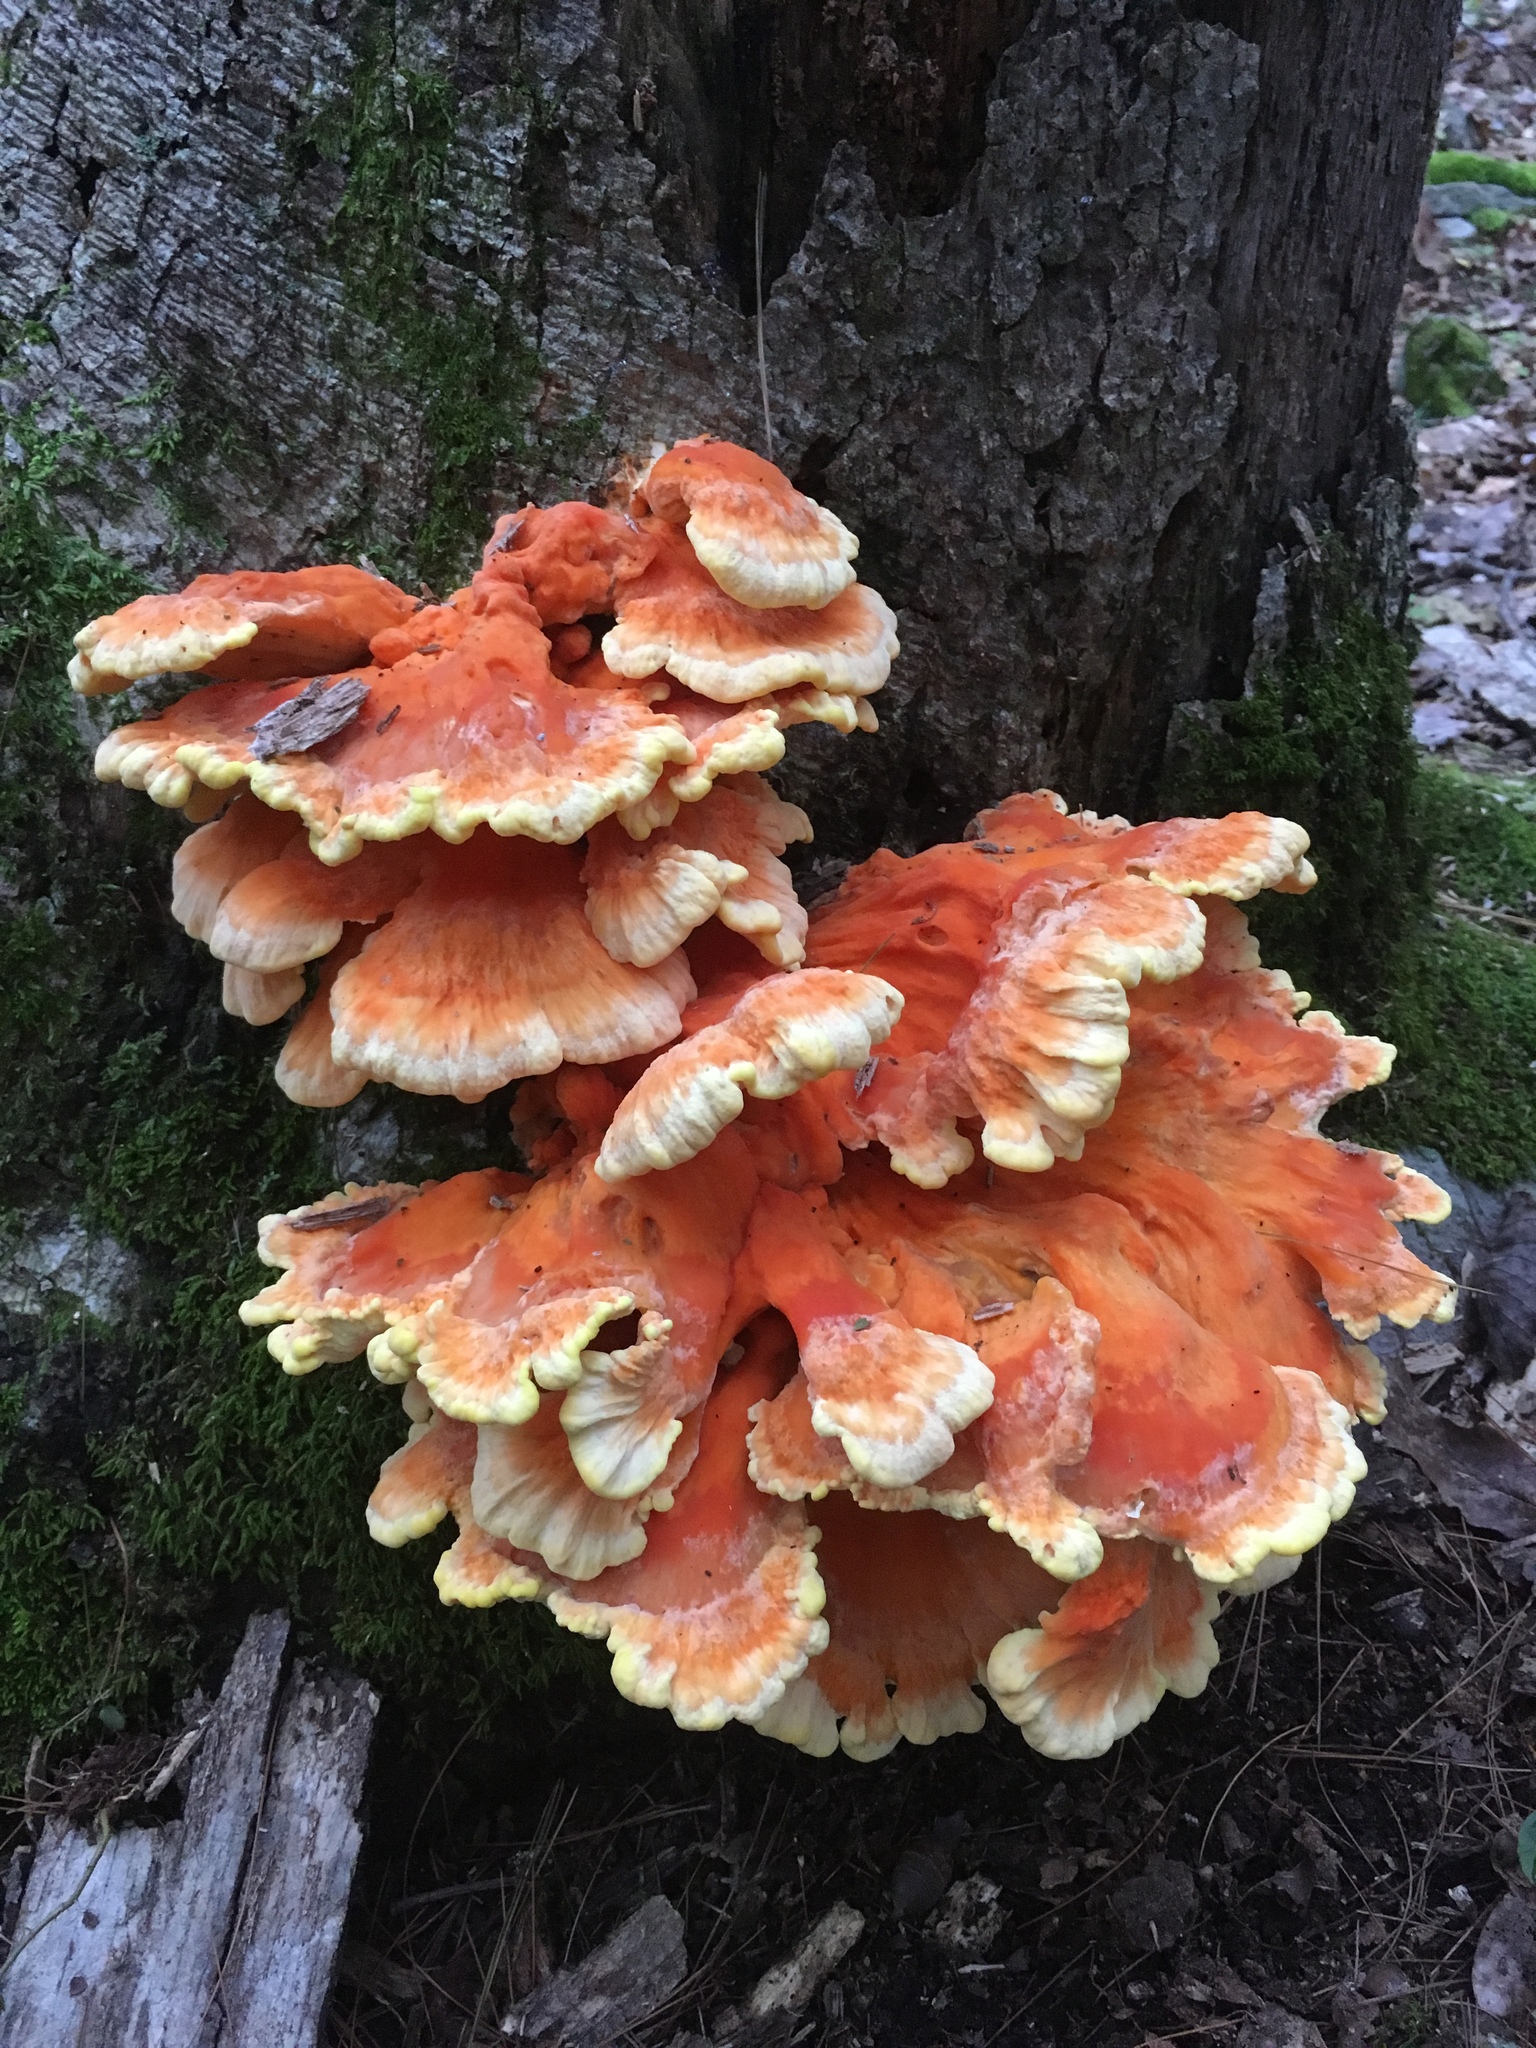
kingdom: Fungi
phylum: Basidiomycota
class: Agaricomycetes
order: Polyporales
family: Laetiporaceae
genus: Laetiporus
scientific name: Laetiporus sulphureus
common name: Chicken of the woods
